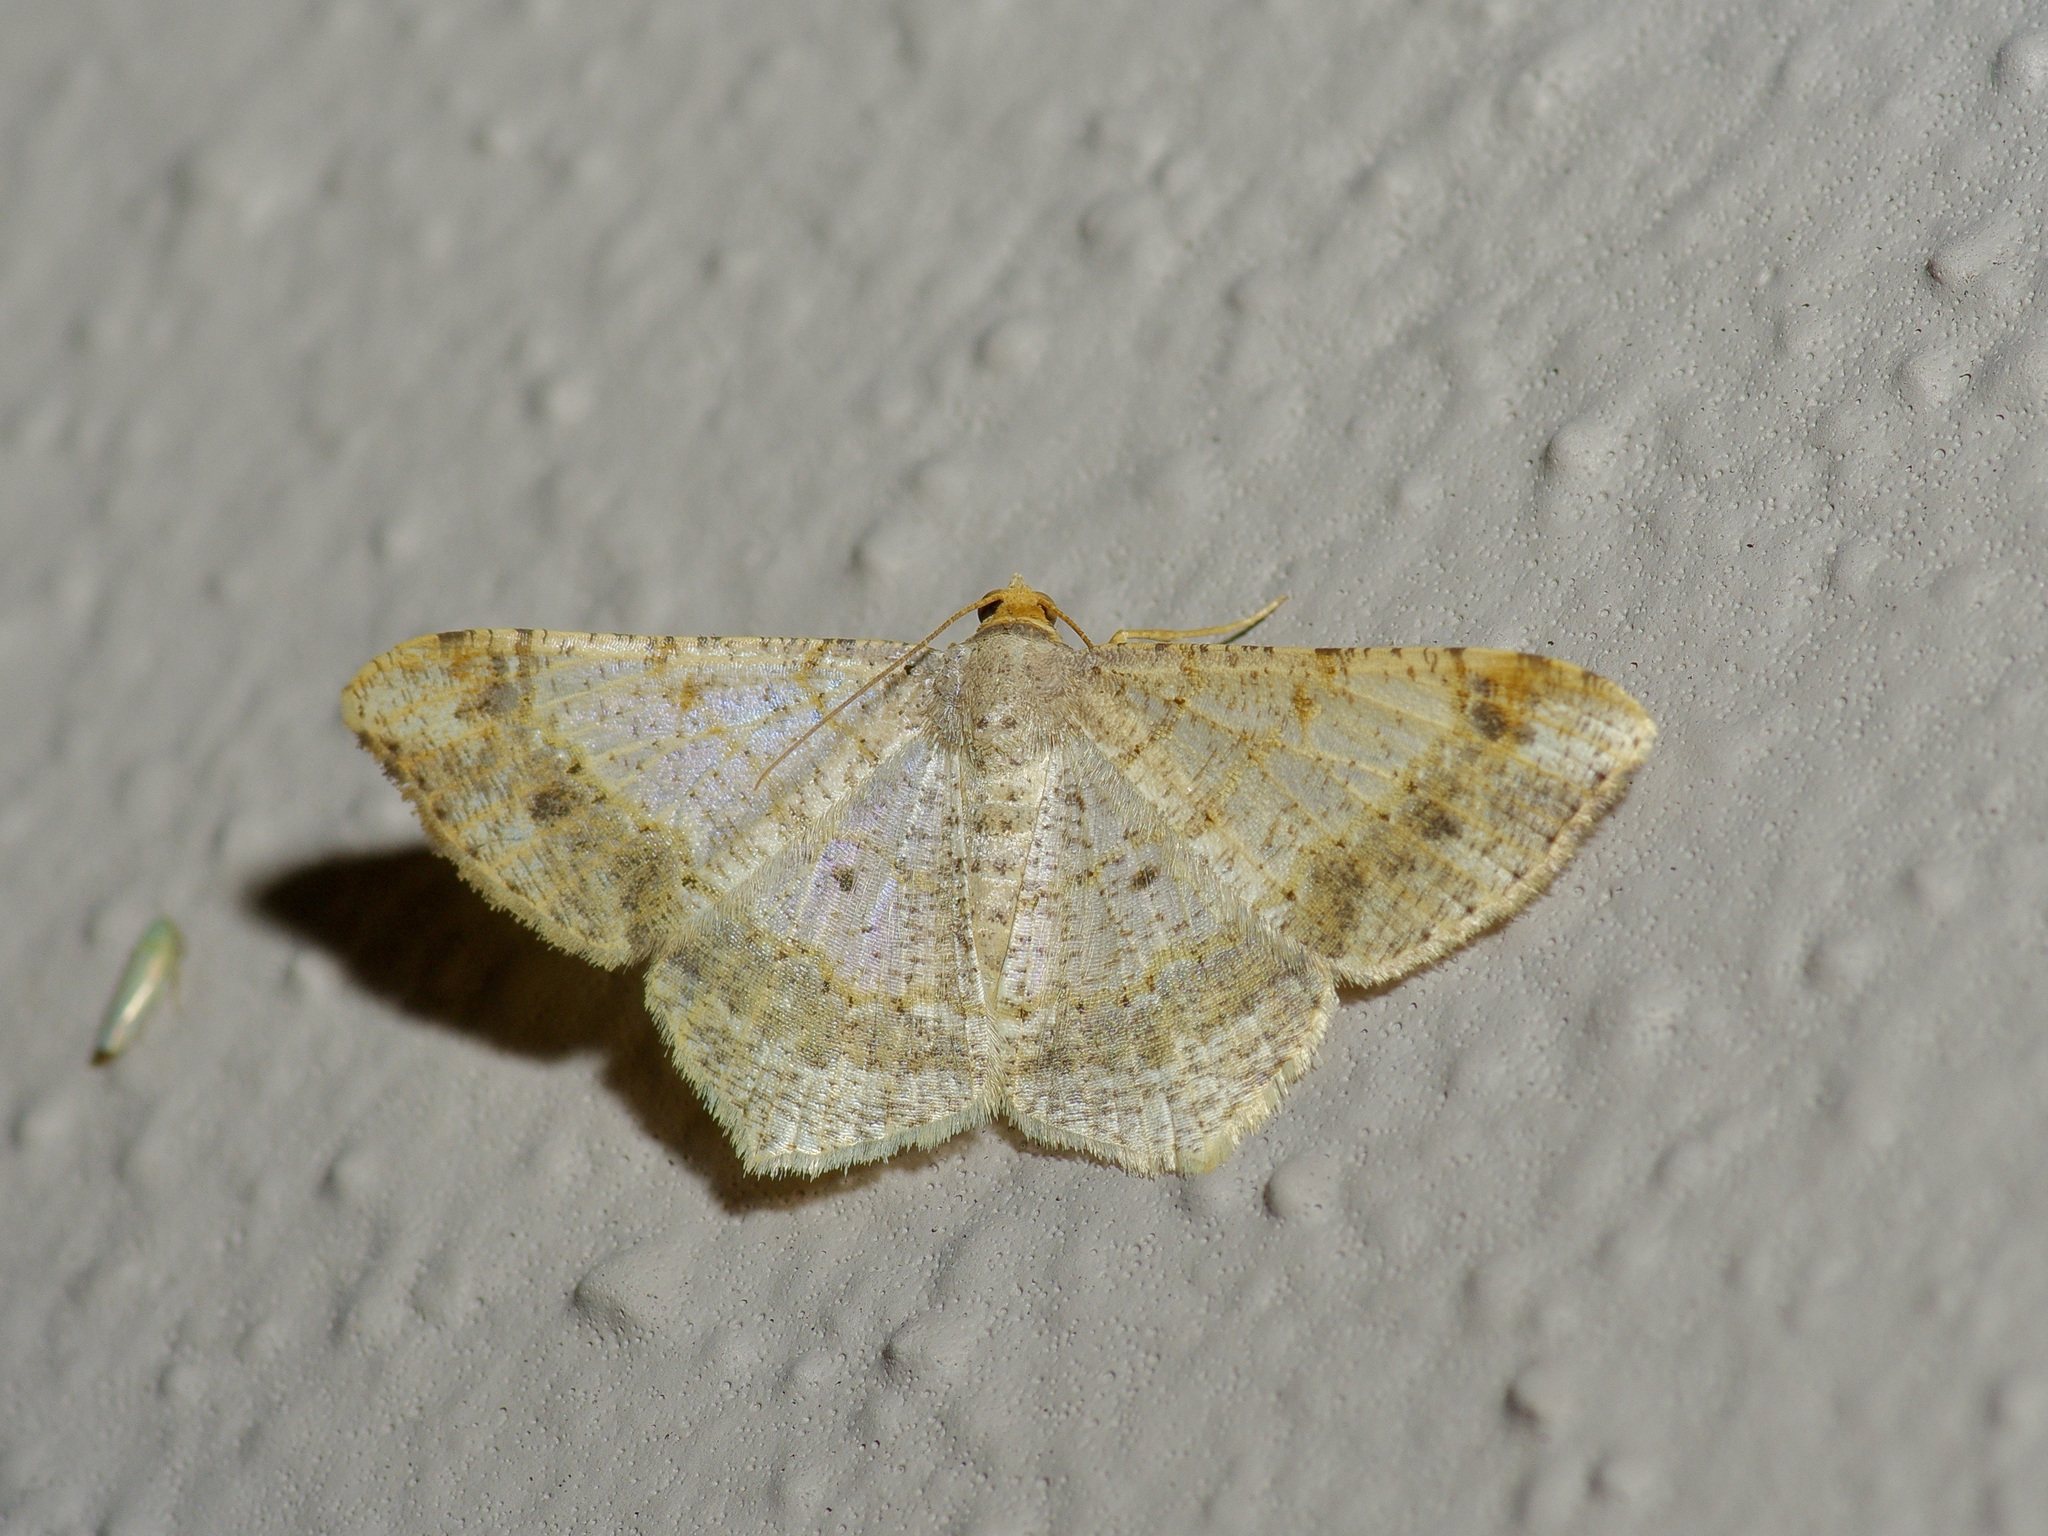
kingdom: Animalia
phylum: Arthropoda
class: Insecta
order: Lepidoptera
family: Geometridae
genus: Macaria
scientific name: Macaria abydata
